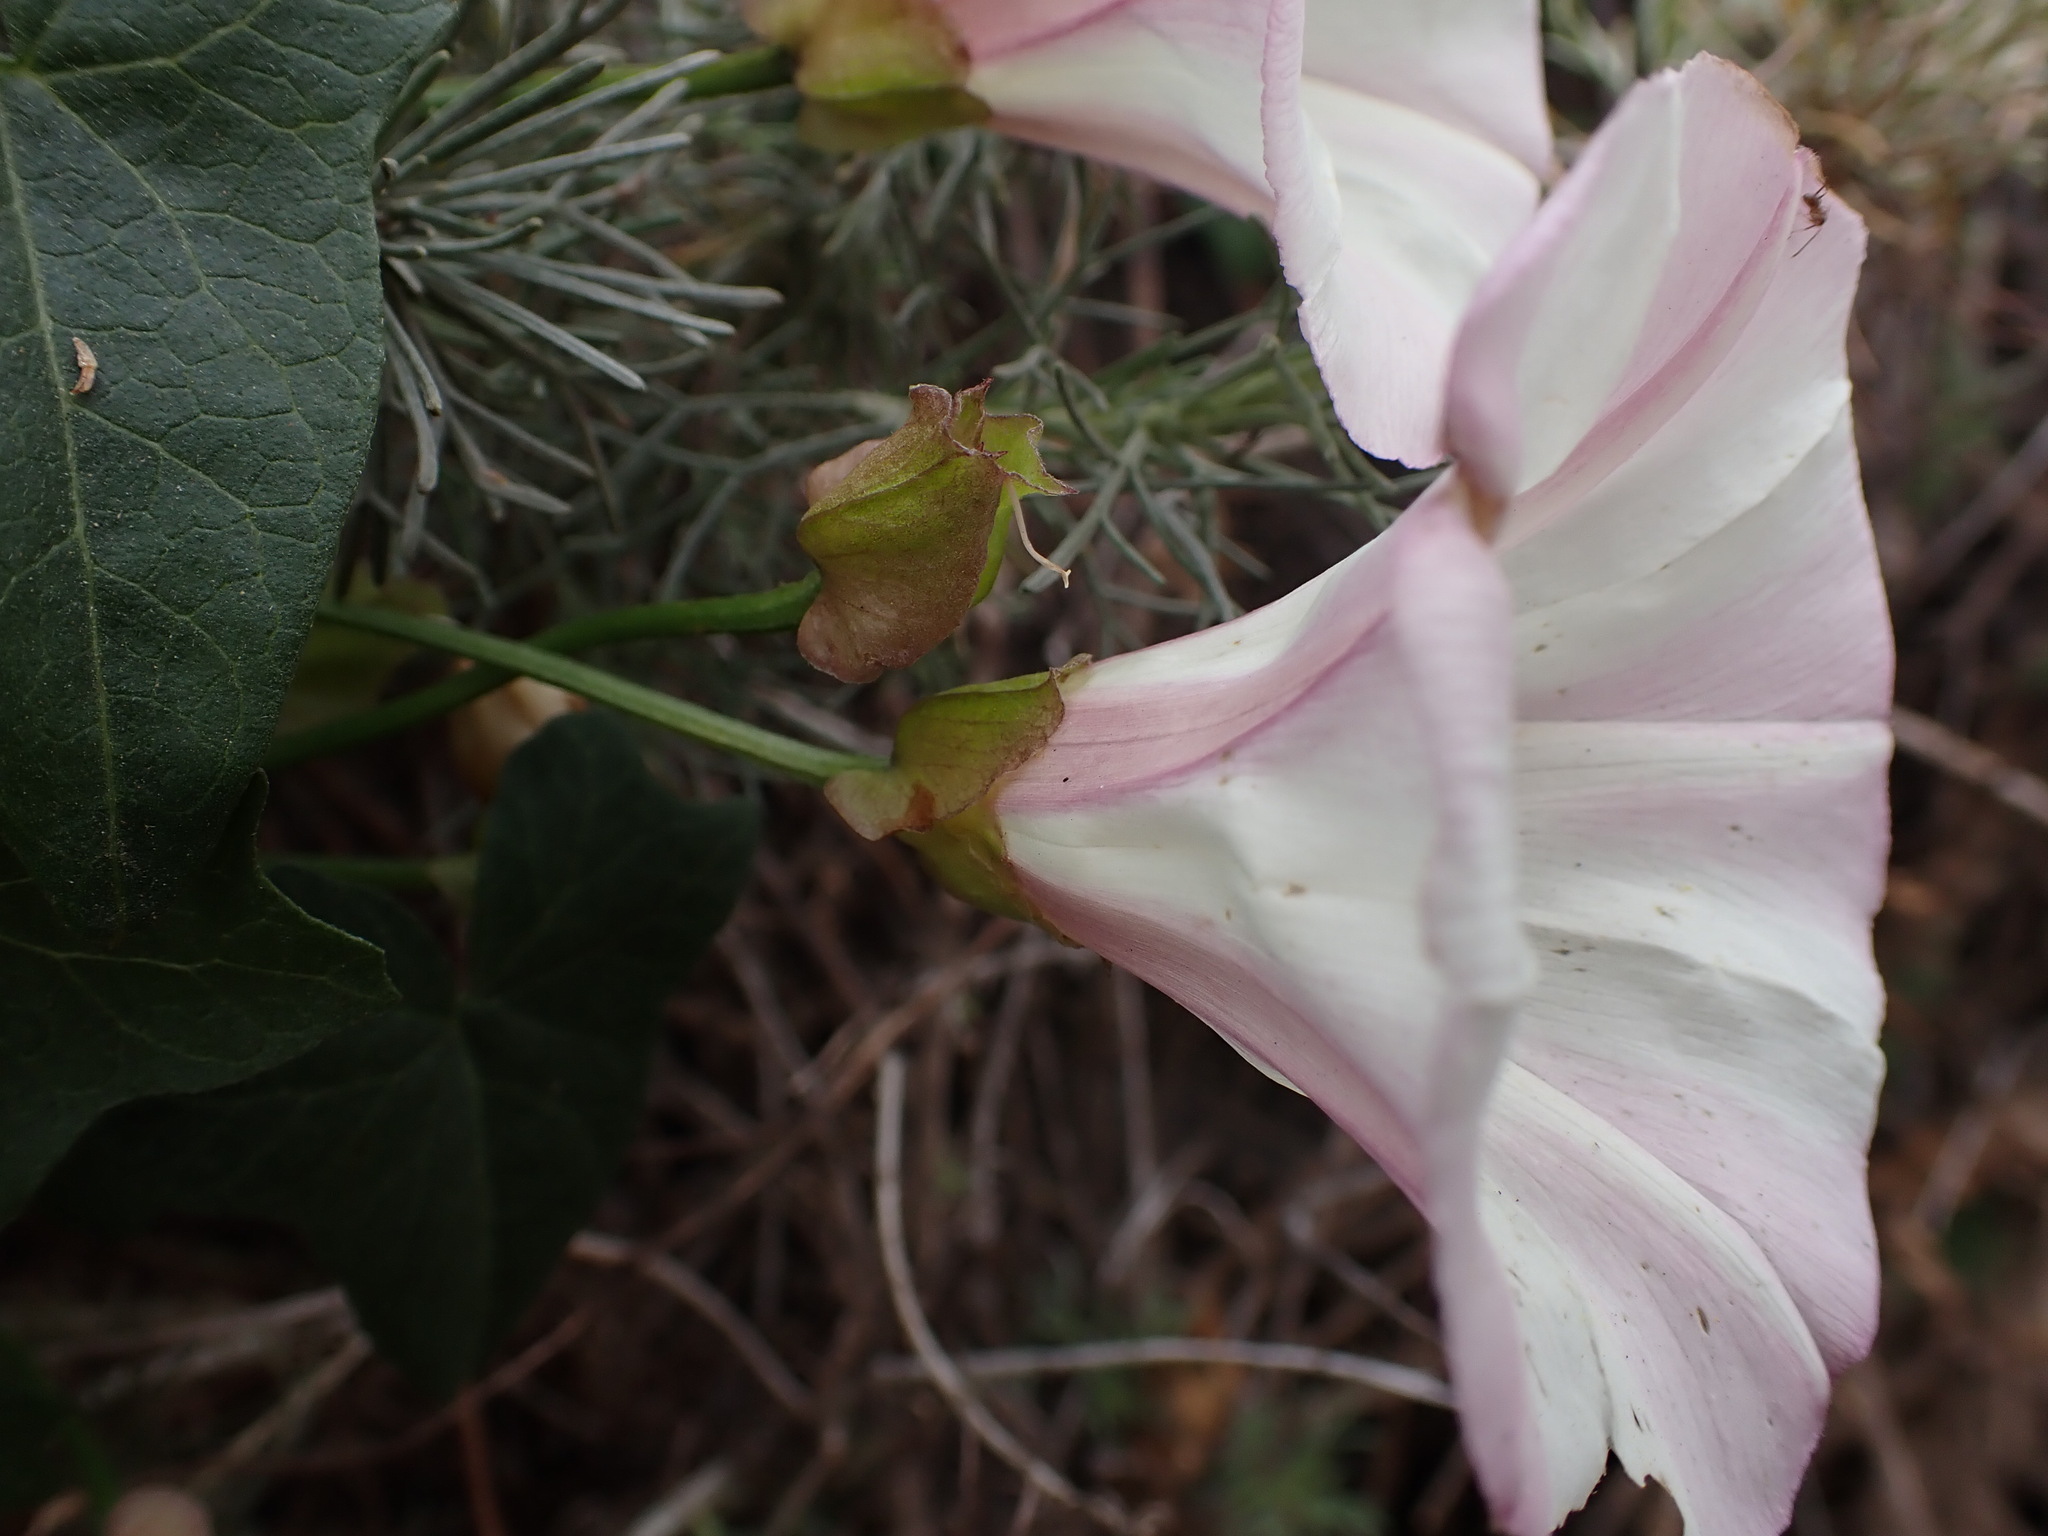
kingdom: Plantae
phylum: Tracheophyta
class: Magnoliopsida
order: Solanales
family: Convolvulaceae
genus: Calystegia
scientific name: Calystegia macrostegia
